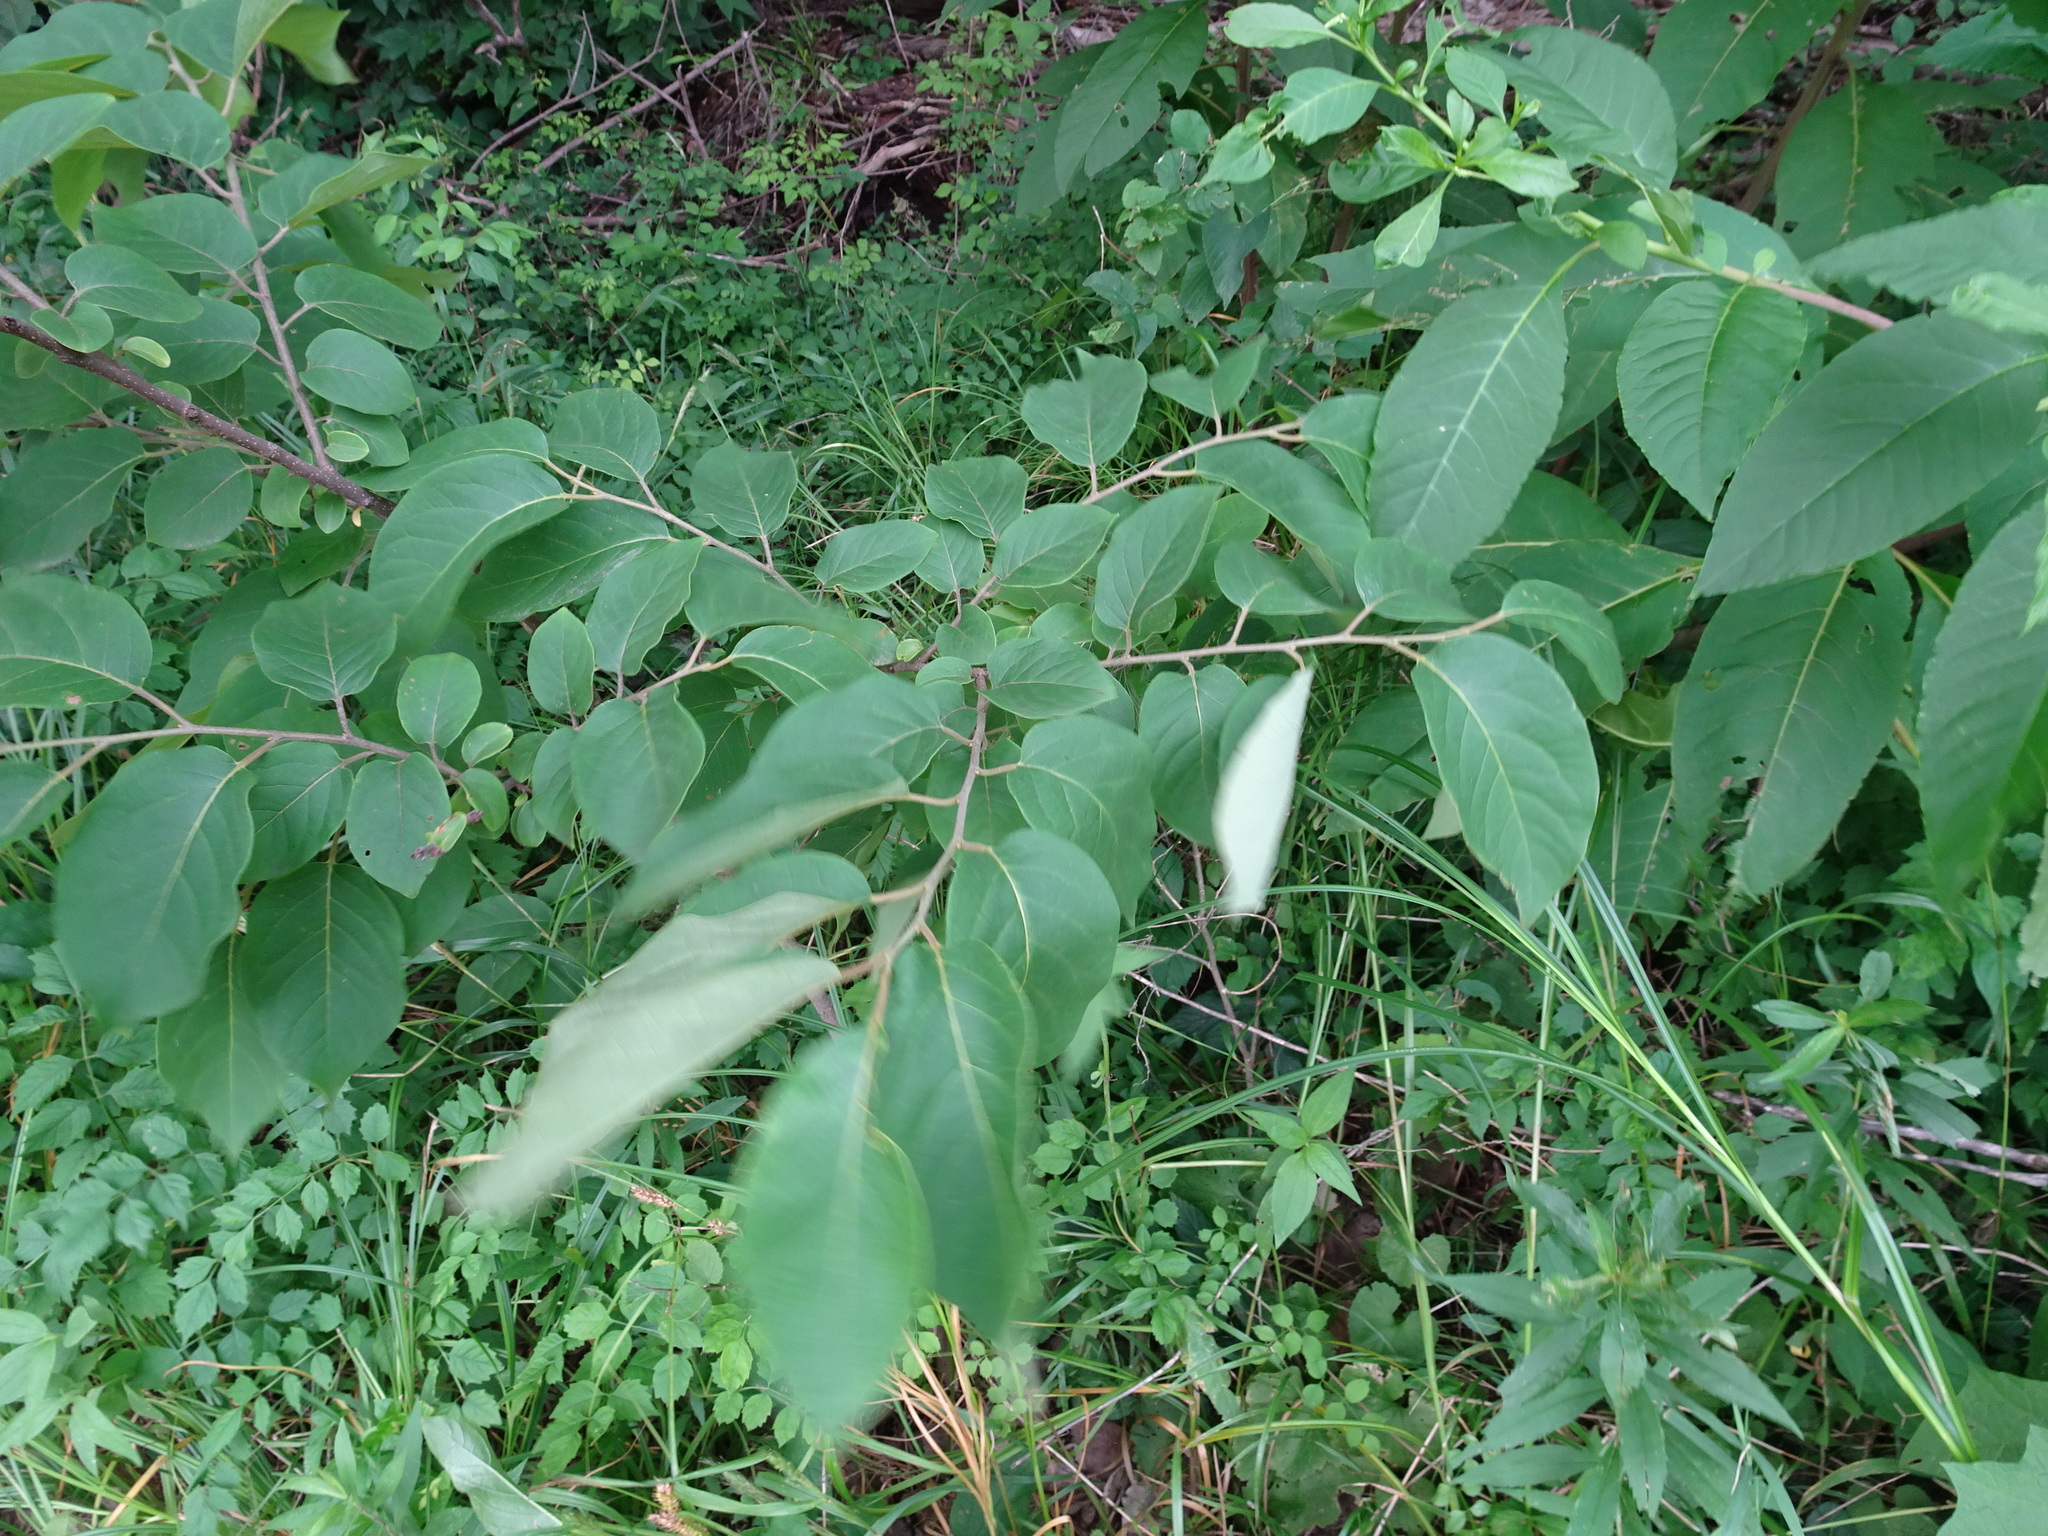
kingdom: Plantae
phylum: Tracheophyta
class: Magnoliopsida
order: Ericales
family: Ebenaceae
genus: Diospyros
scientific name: Diospyros virginiana
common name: Persimmon
